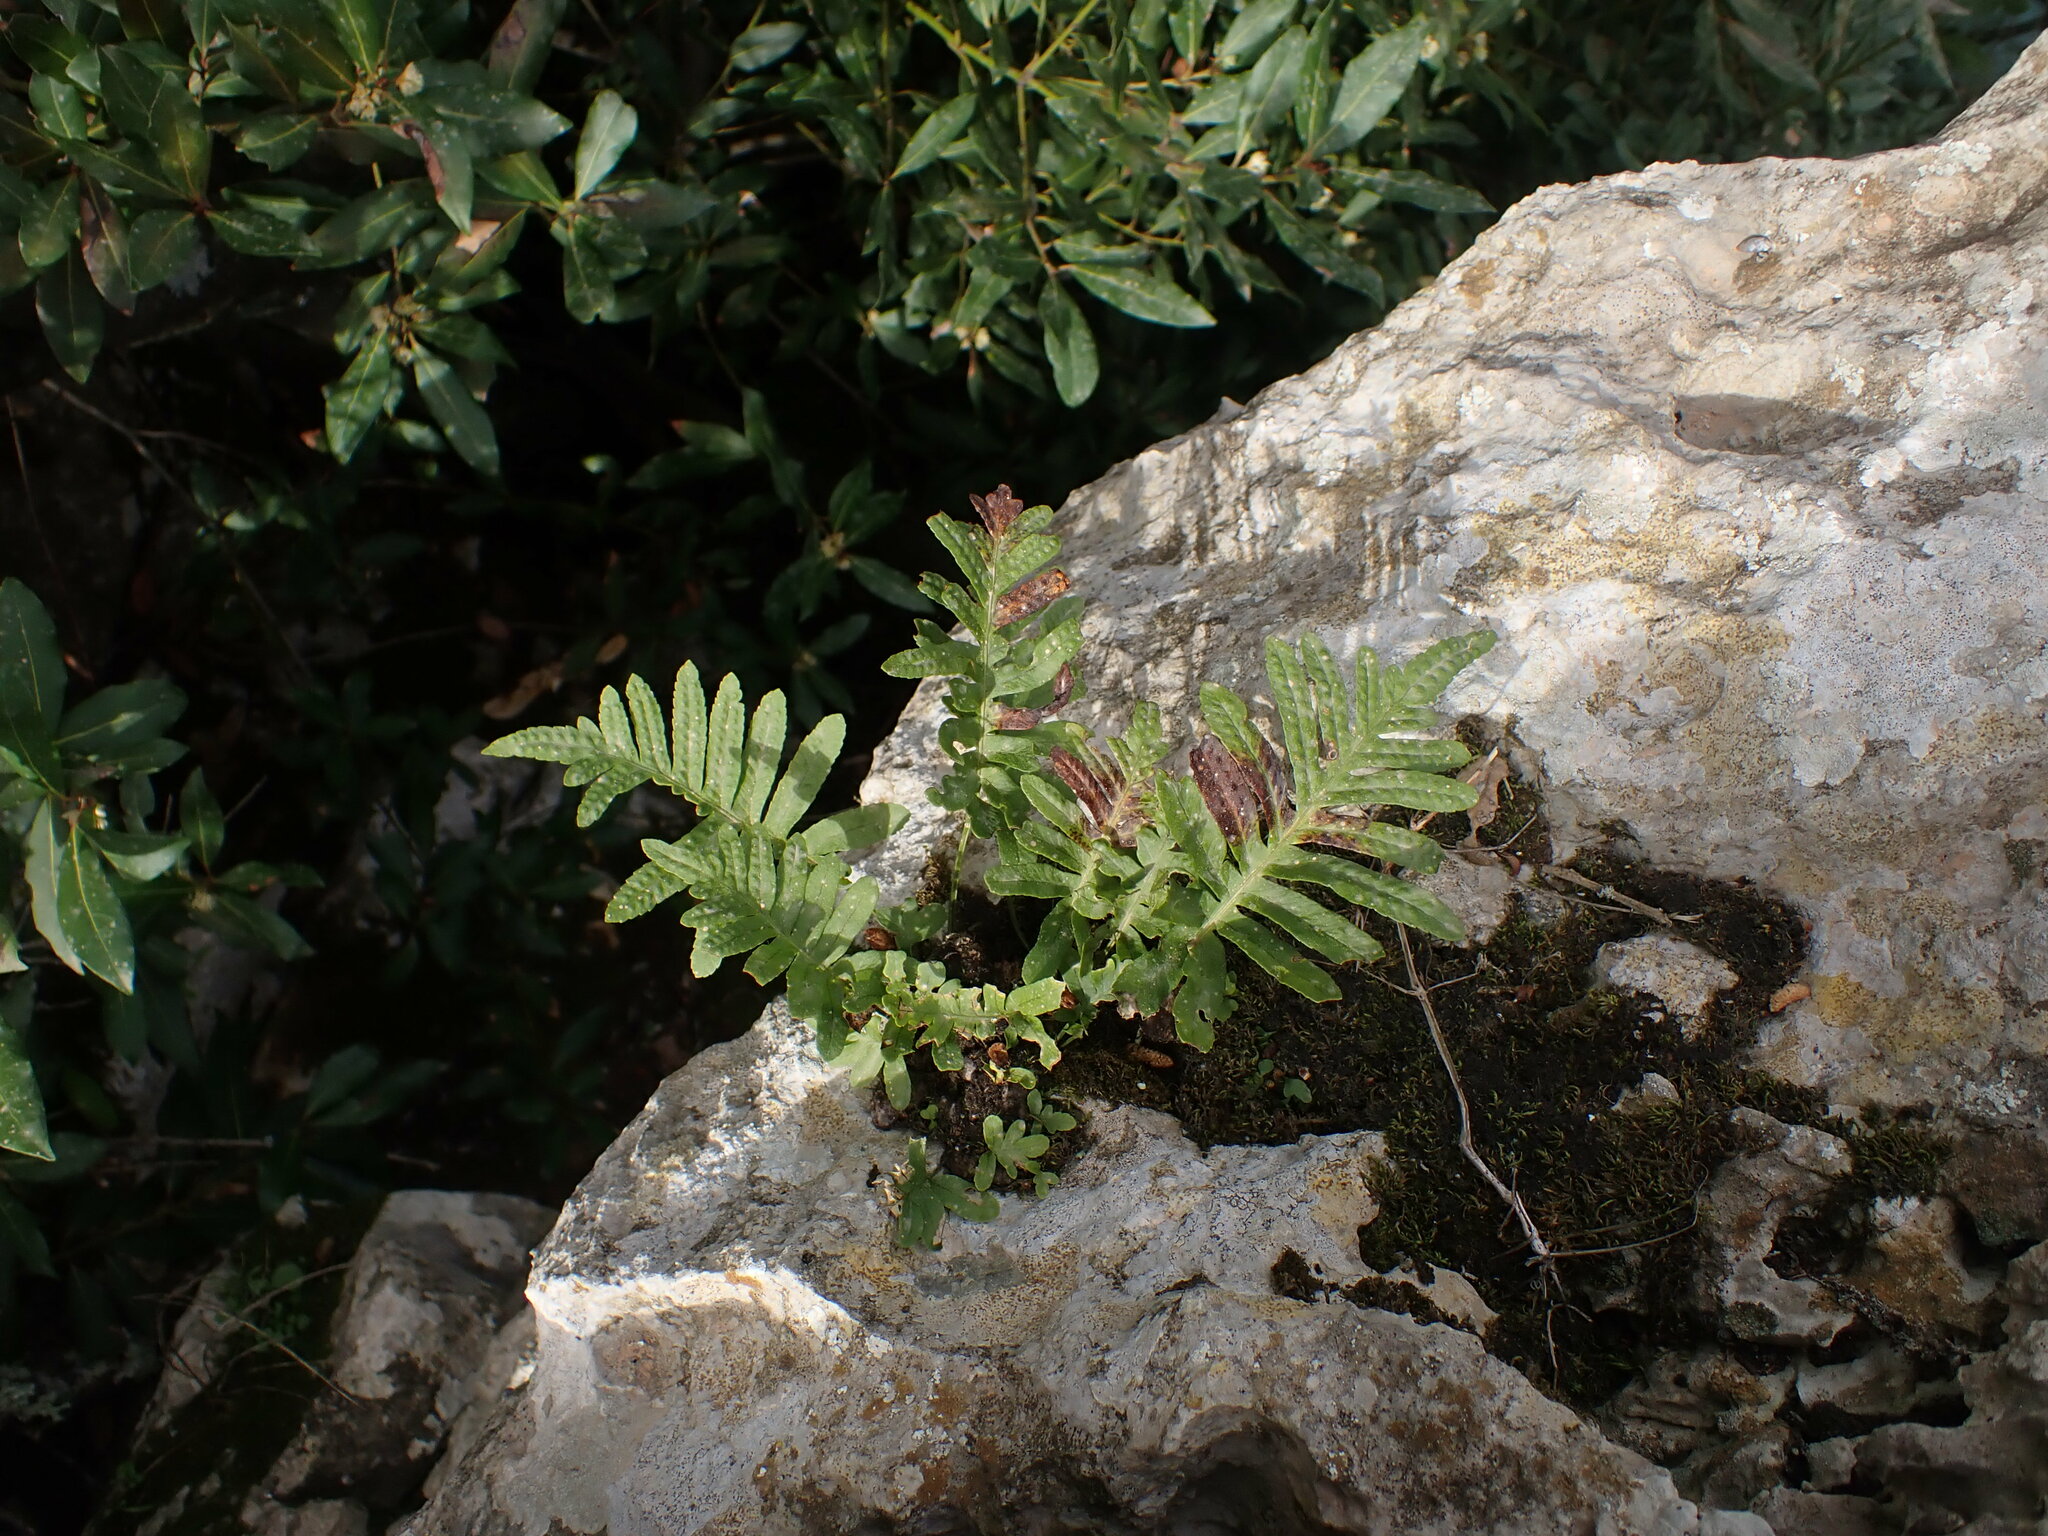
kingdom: Plantae
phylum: Tracheophyta
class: Polypodiopsida
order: Polypodiales
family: Polypodiaceae
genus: Polypodium
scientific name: Polypodium cambricum
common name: Southern polypody
